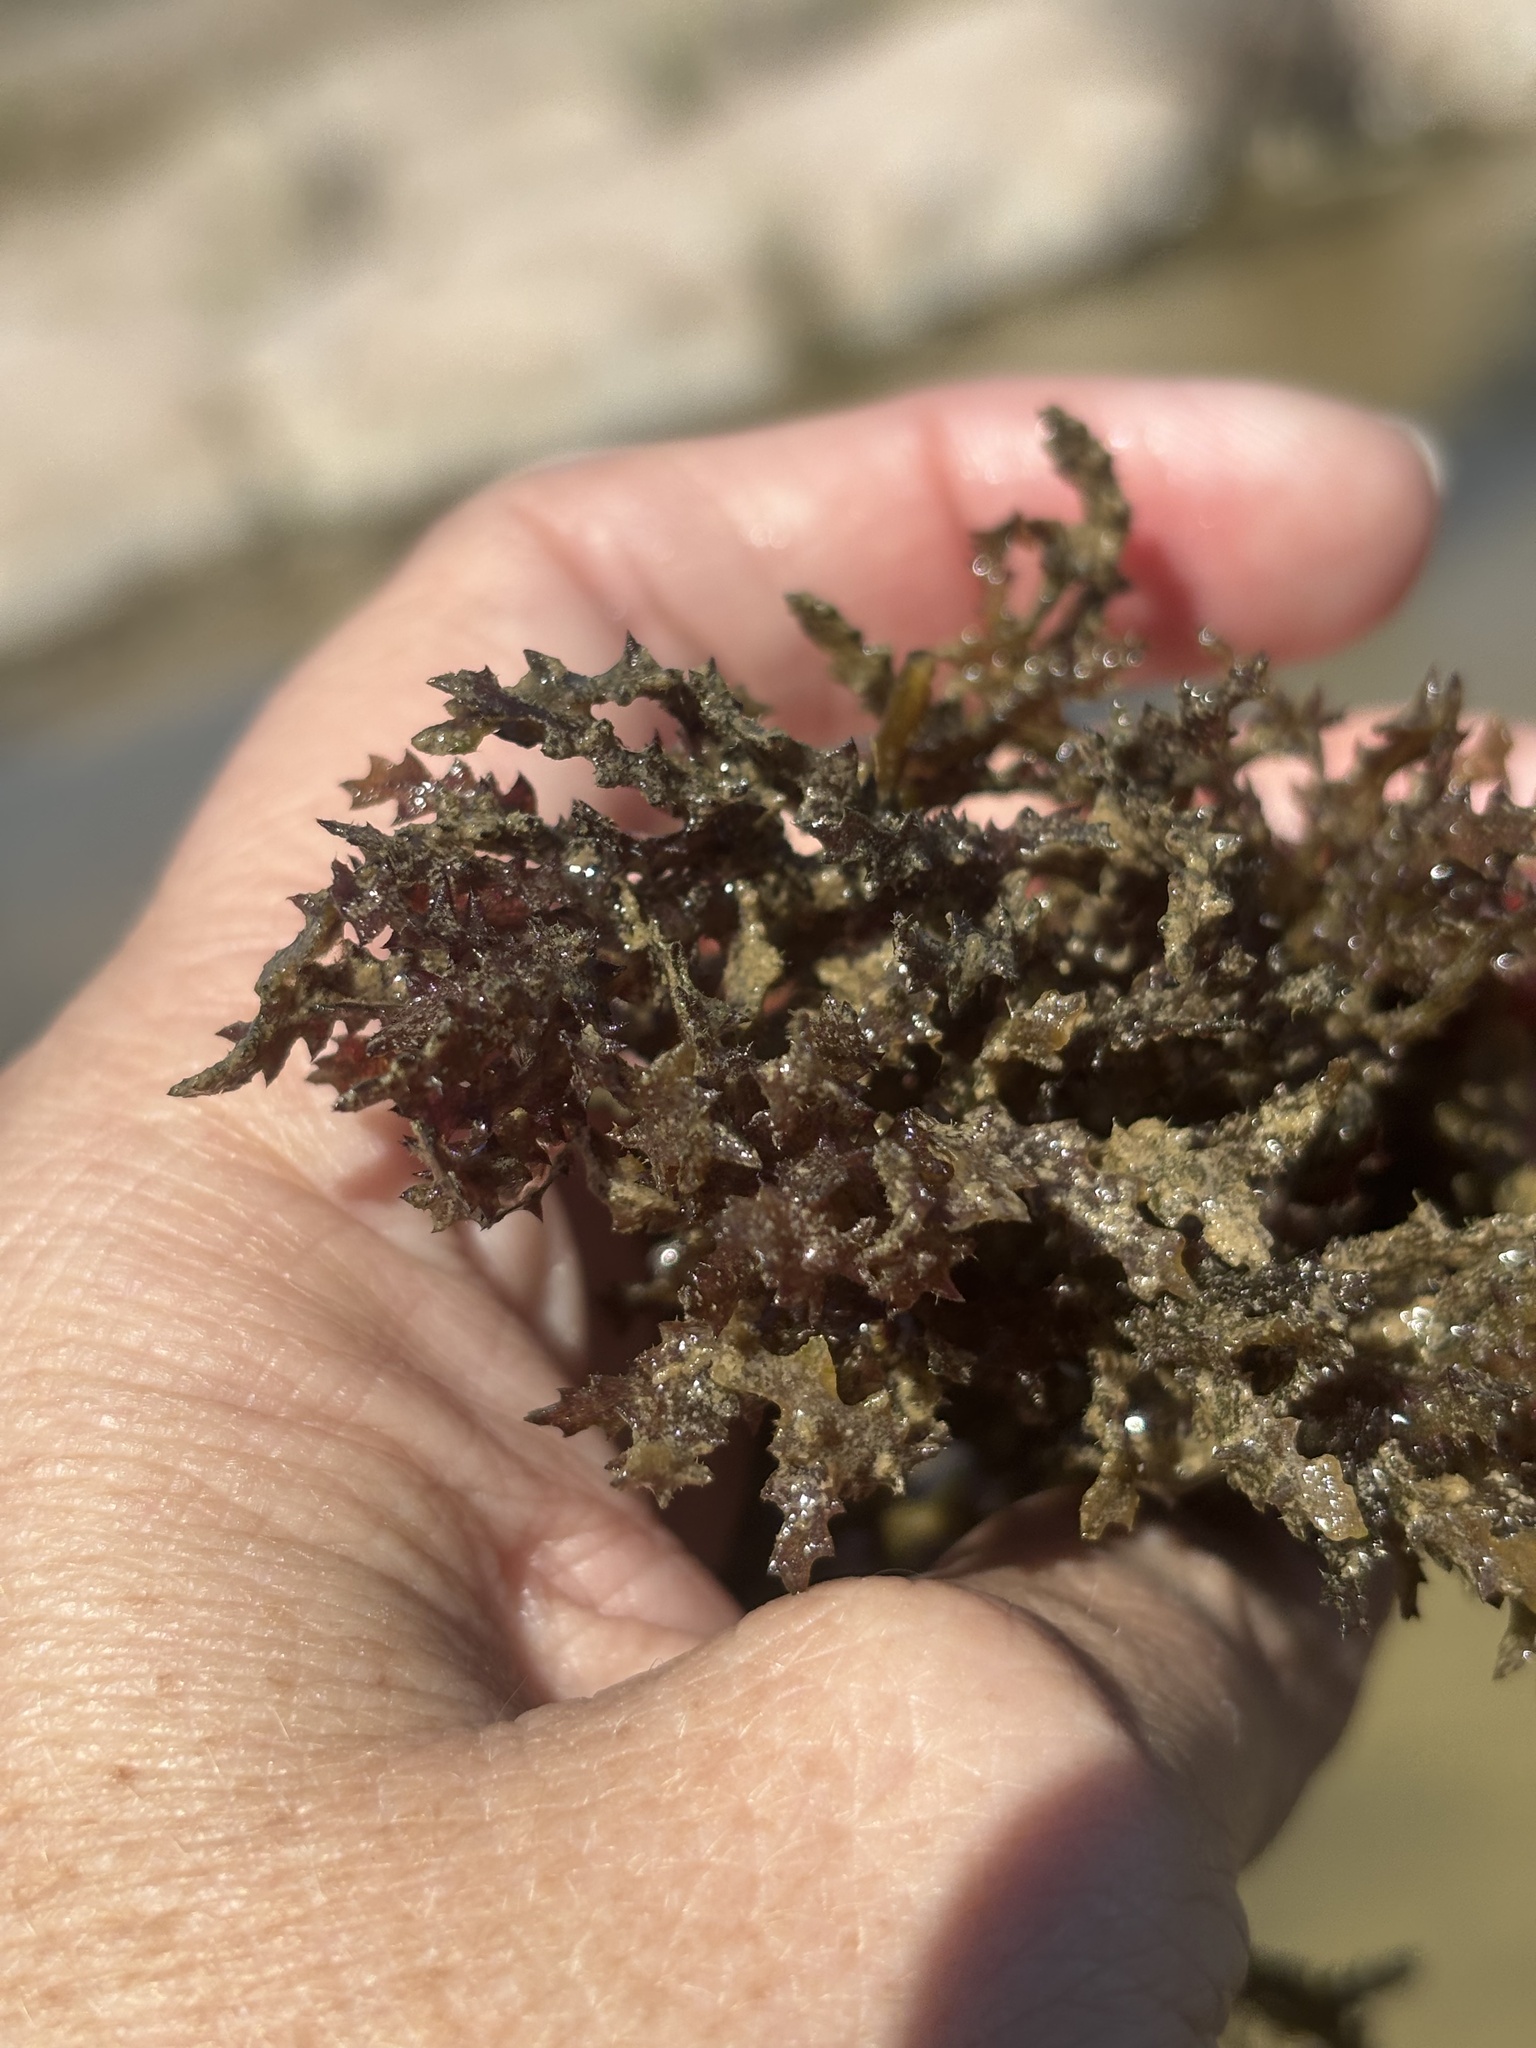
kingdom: Plantae
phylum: Tracheophyta
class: Liliopsida
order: Alismatales
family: Hydrocharitaceae
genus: Najas
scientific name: Najas marina
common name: Holly-leaved naiad
